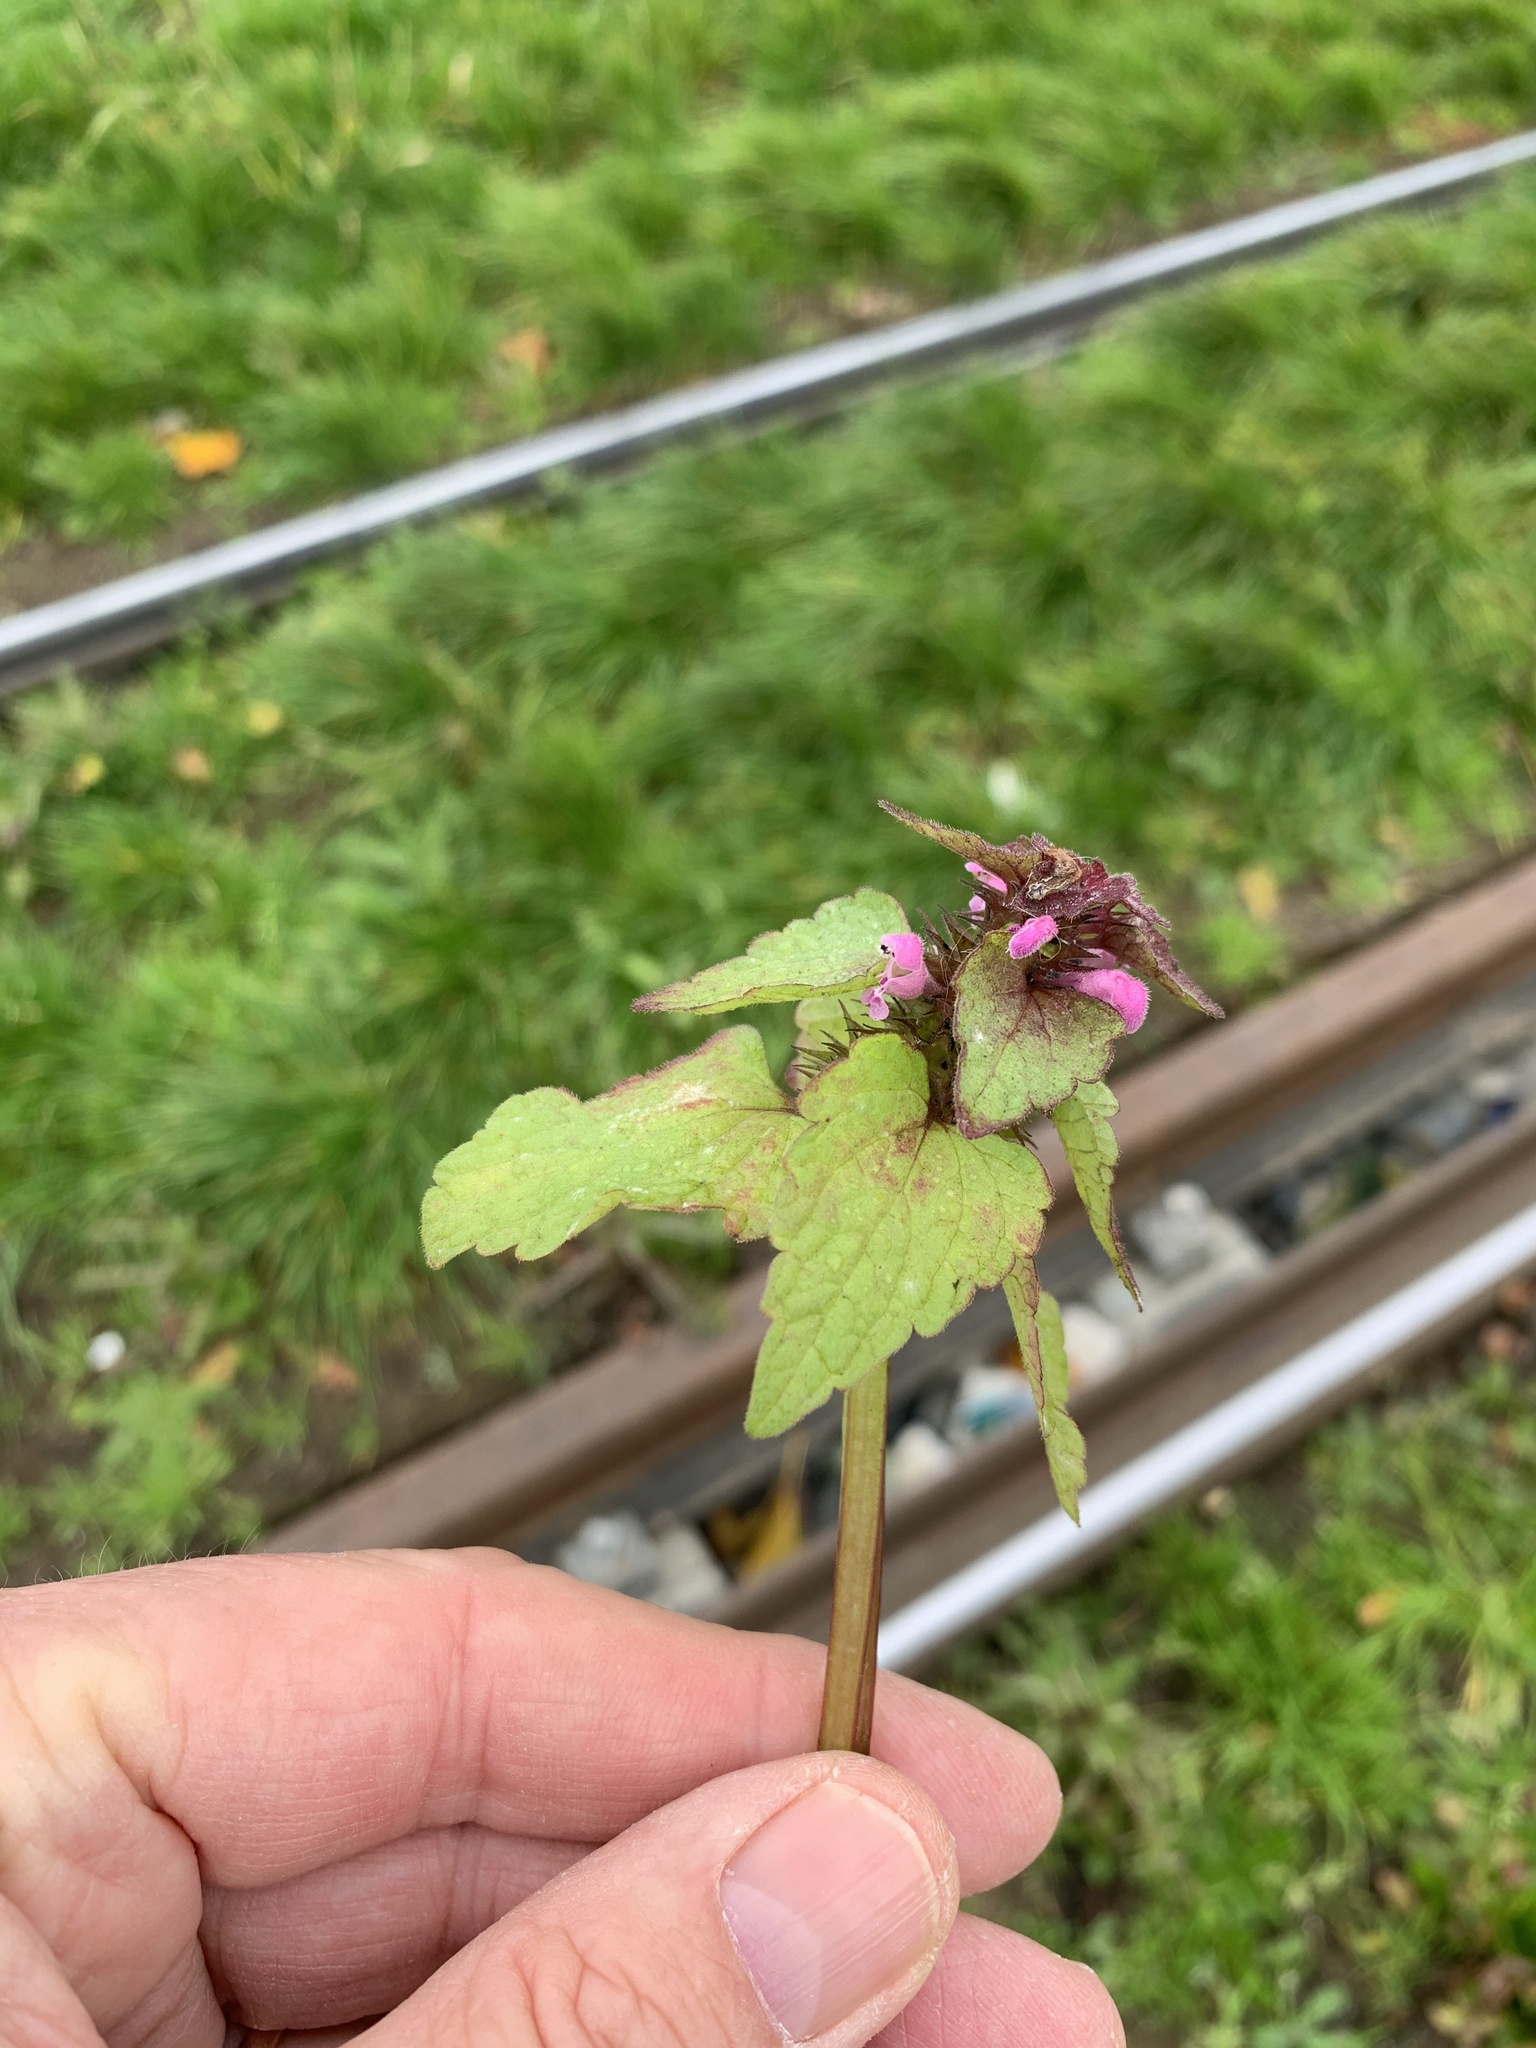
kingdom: Plantae
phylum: Tracheophyta
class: Magnoliopsida
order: Lamiales
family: Lamiaceae
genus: Lamium
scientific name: Lamium purpureum
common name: Red dead-nettle
